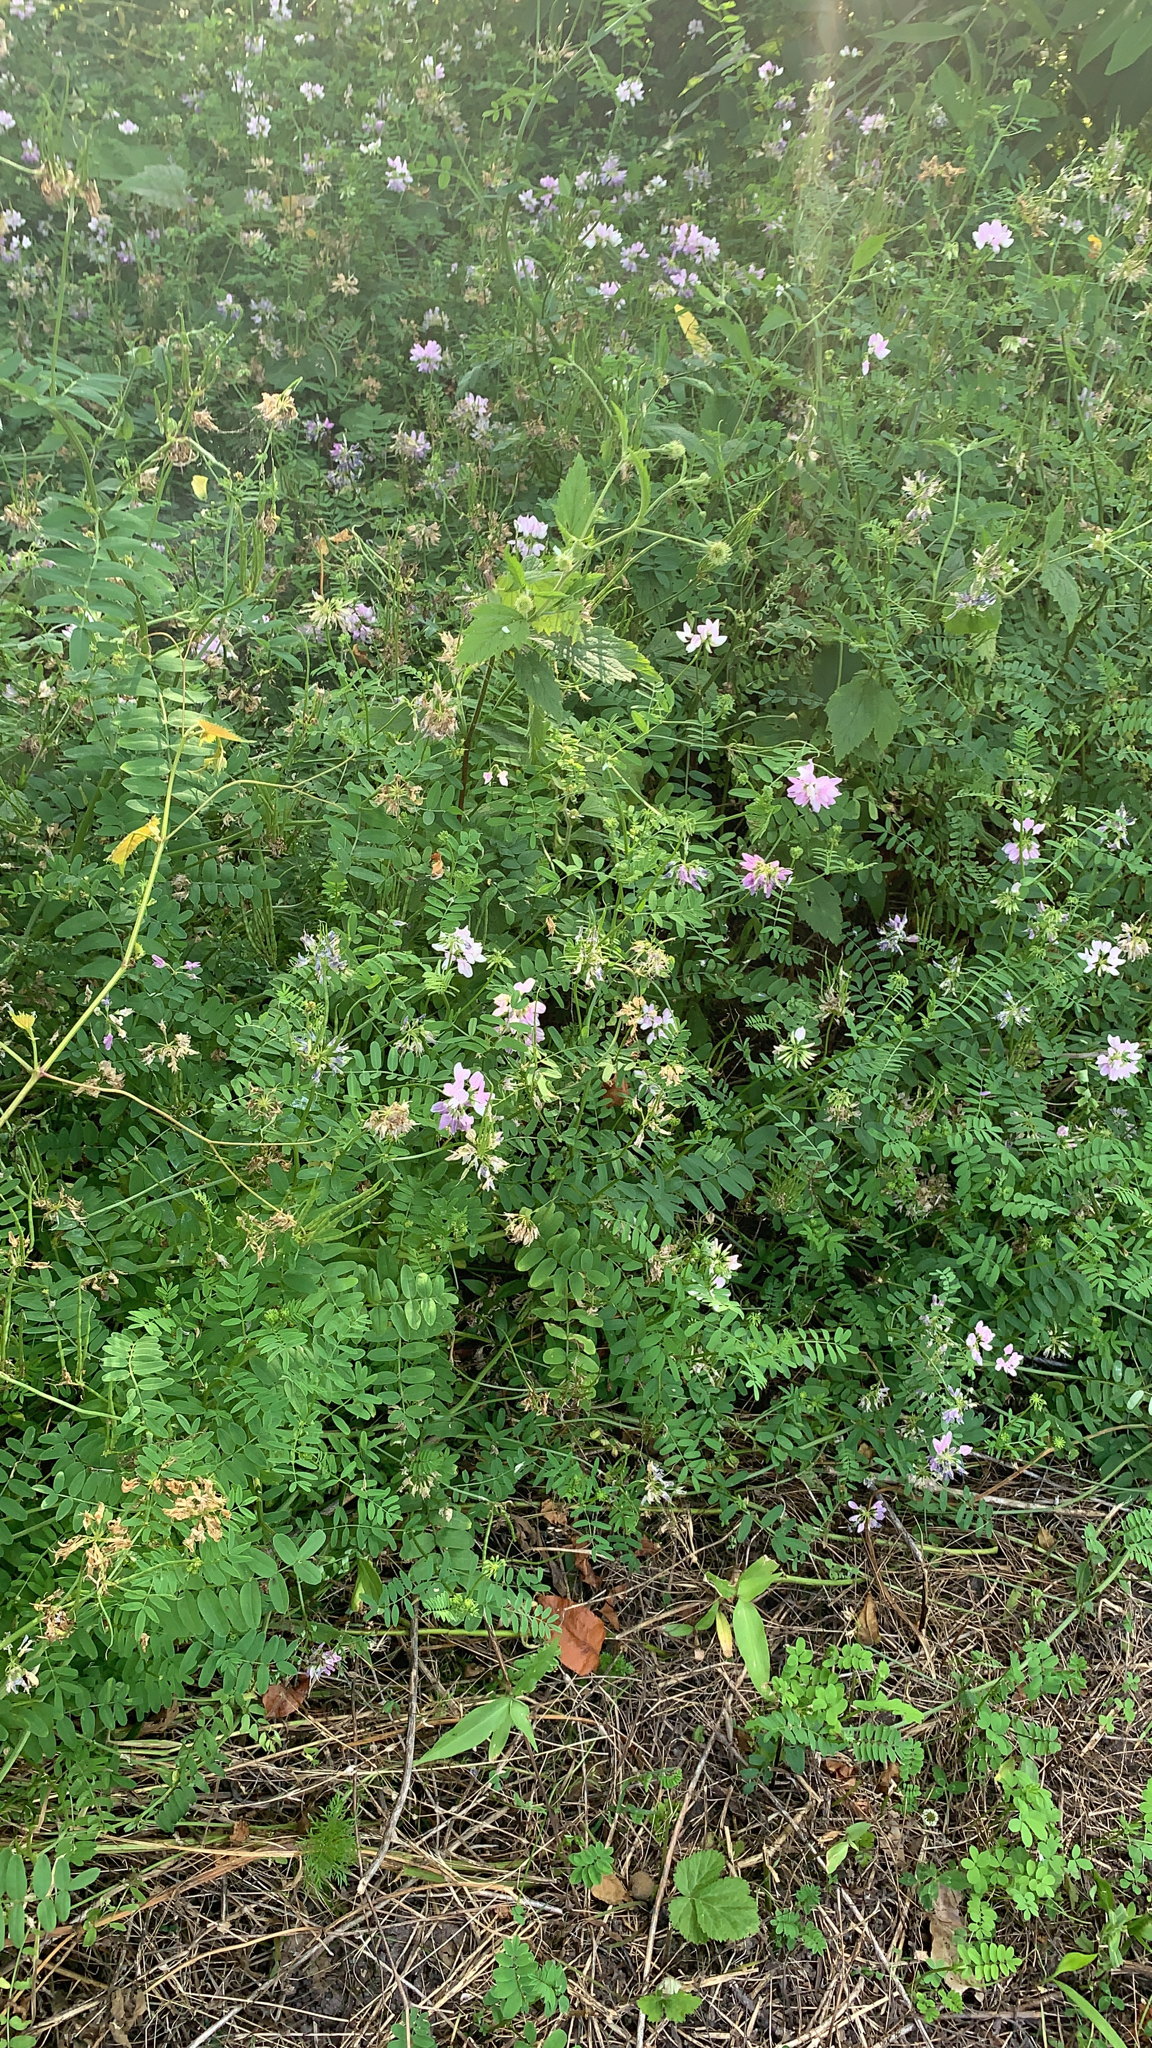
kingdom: Plantae
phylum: Tracheophyta
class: Magnoliopsida
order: Fabales
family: Fabaceae
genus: Coronilla
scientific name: Coronilla varia
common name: Crownvetch
